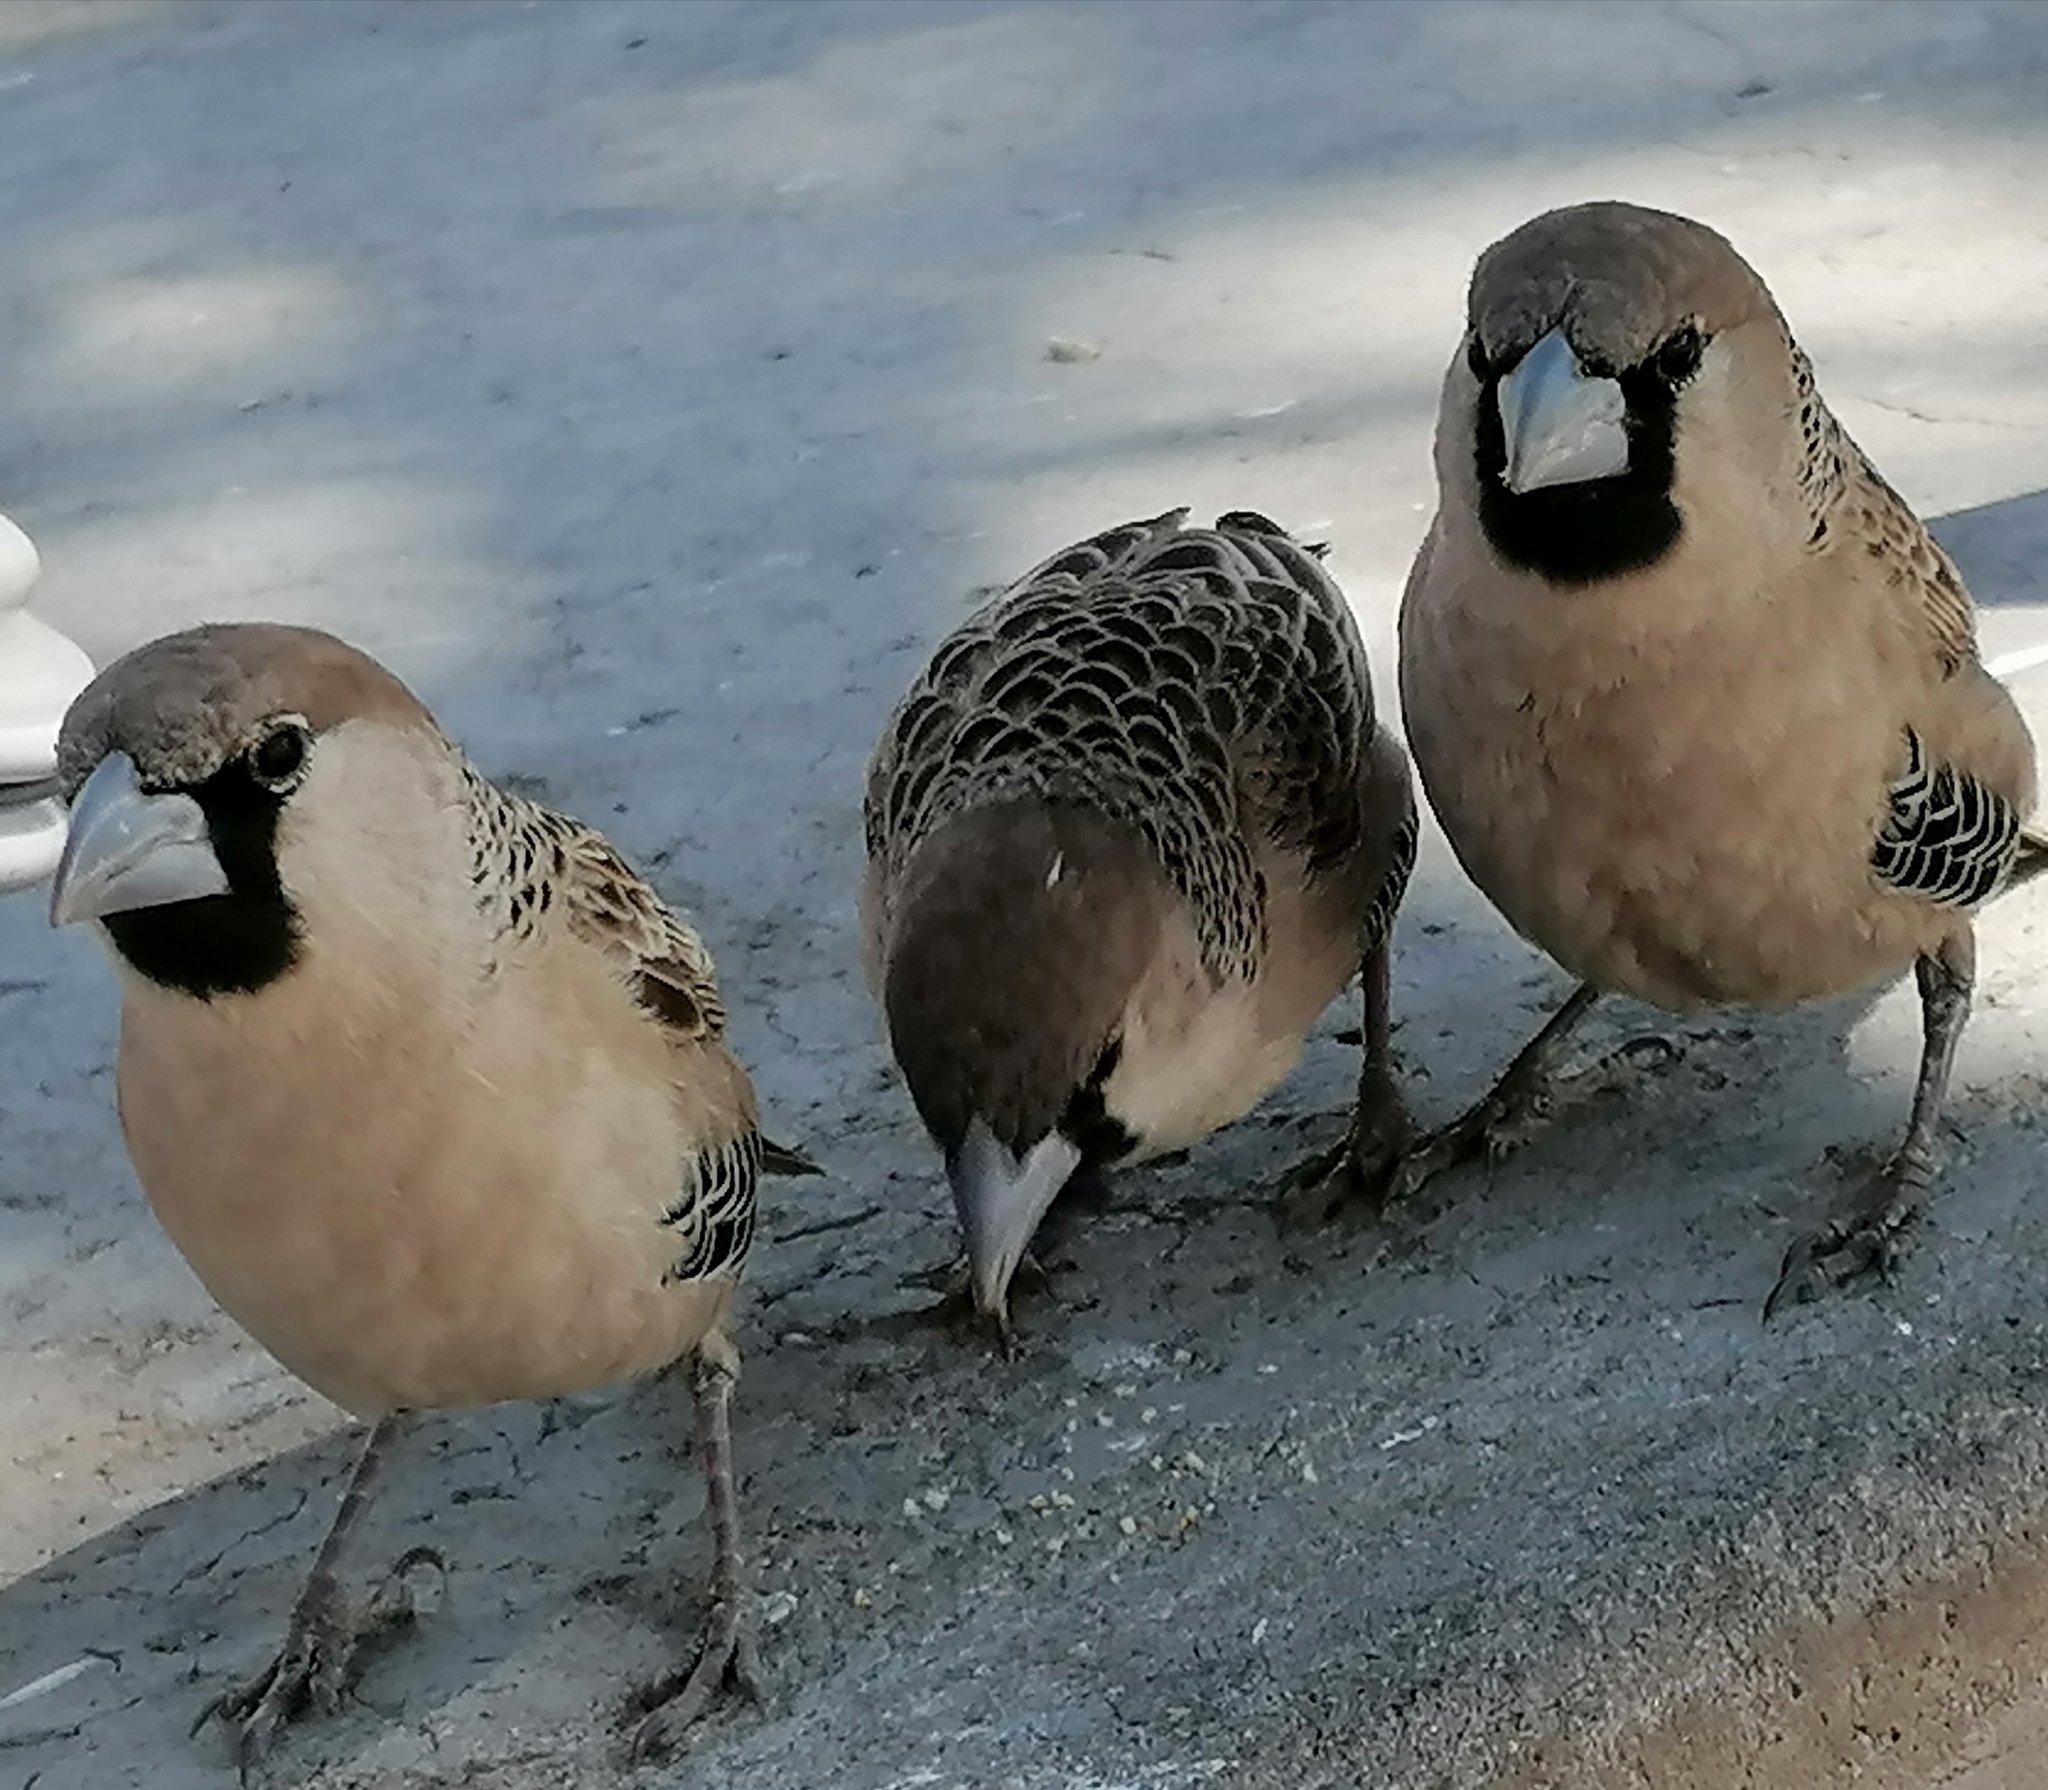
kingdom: Animalia
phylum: Chordata
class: Aves
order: Passeriformes
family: Passeridae
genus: Philetairus
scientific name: Philetairus socius
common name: Sociable weaver
